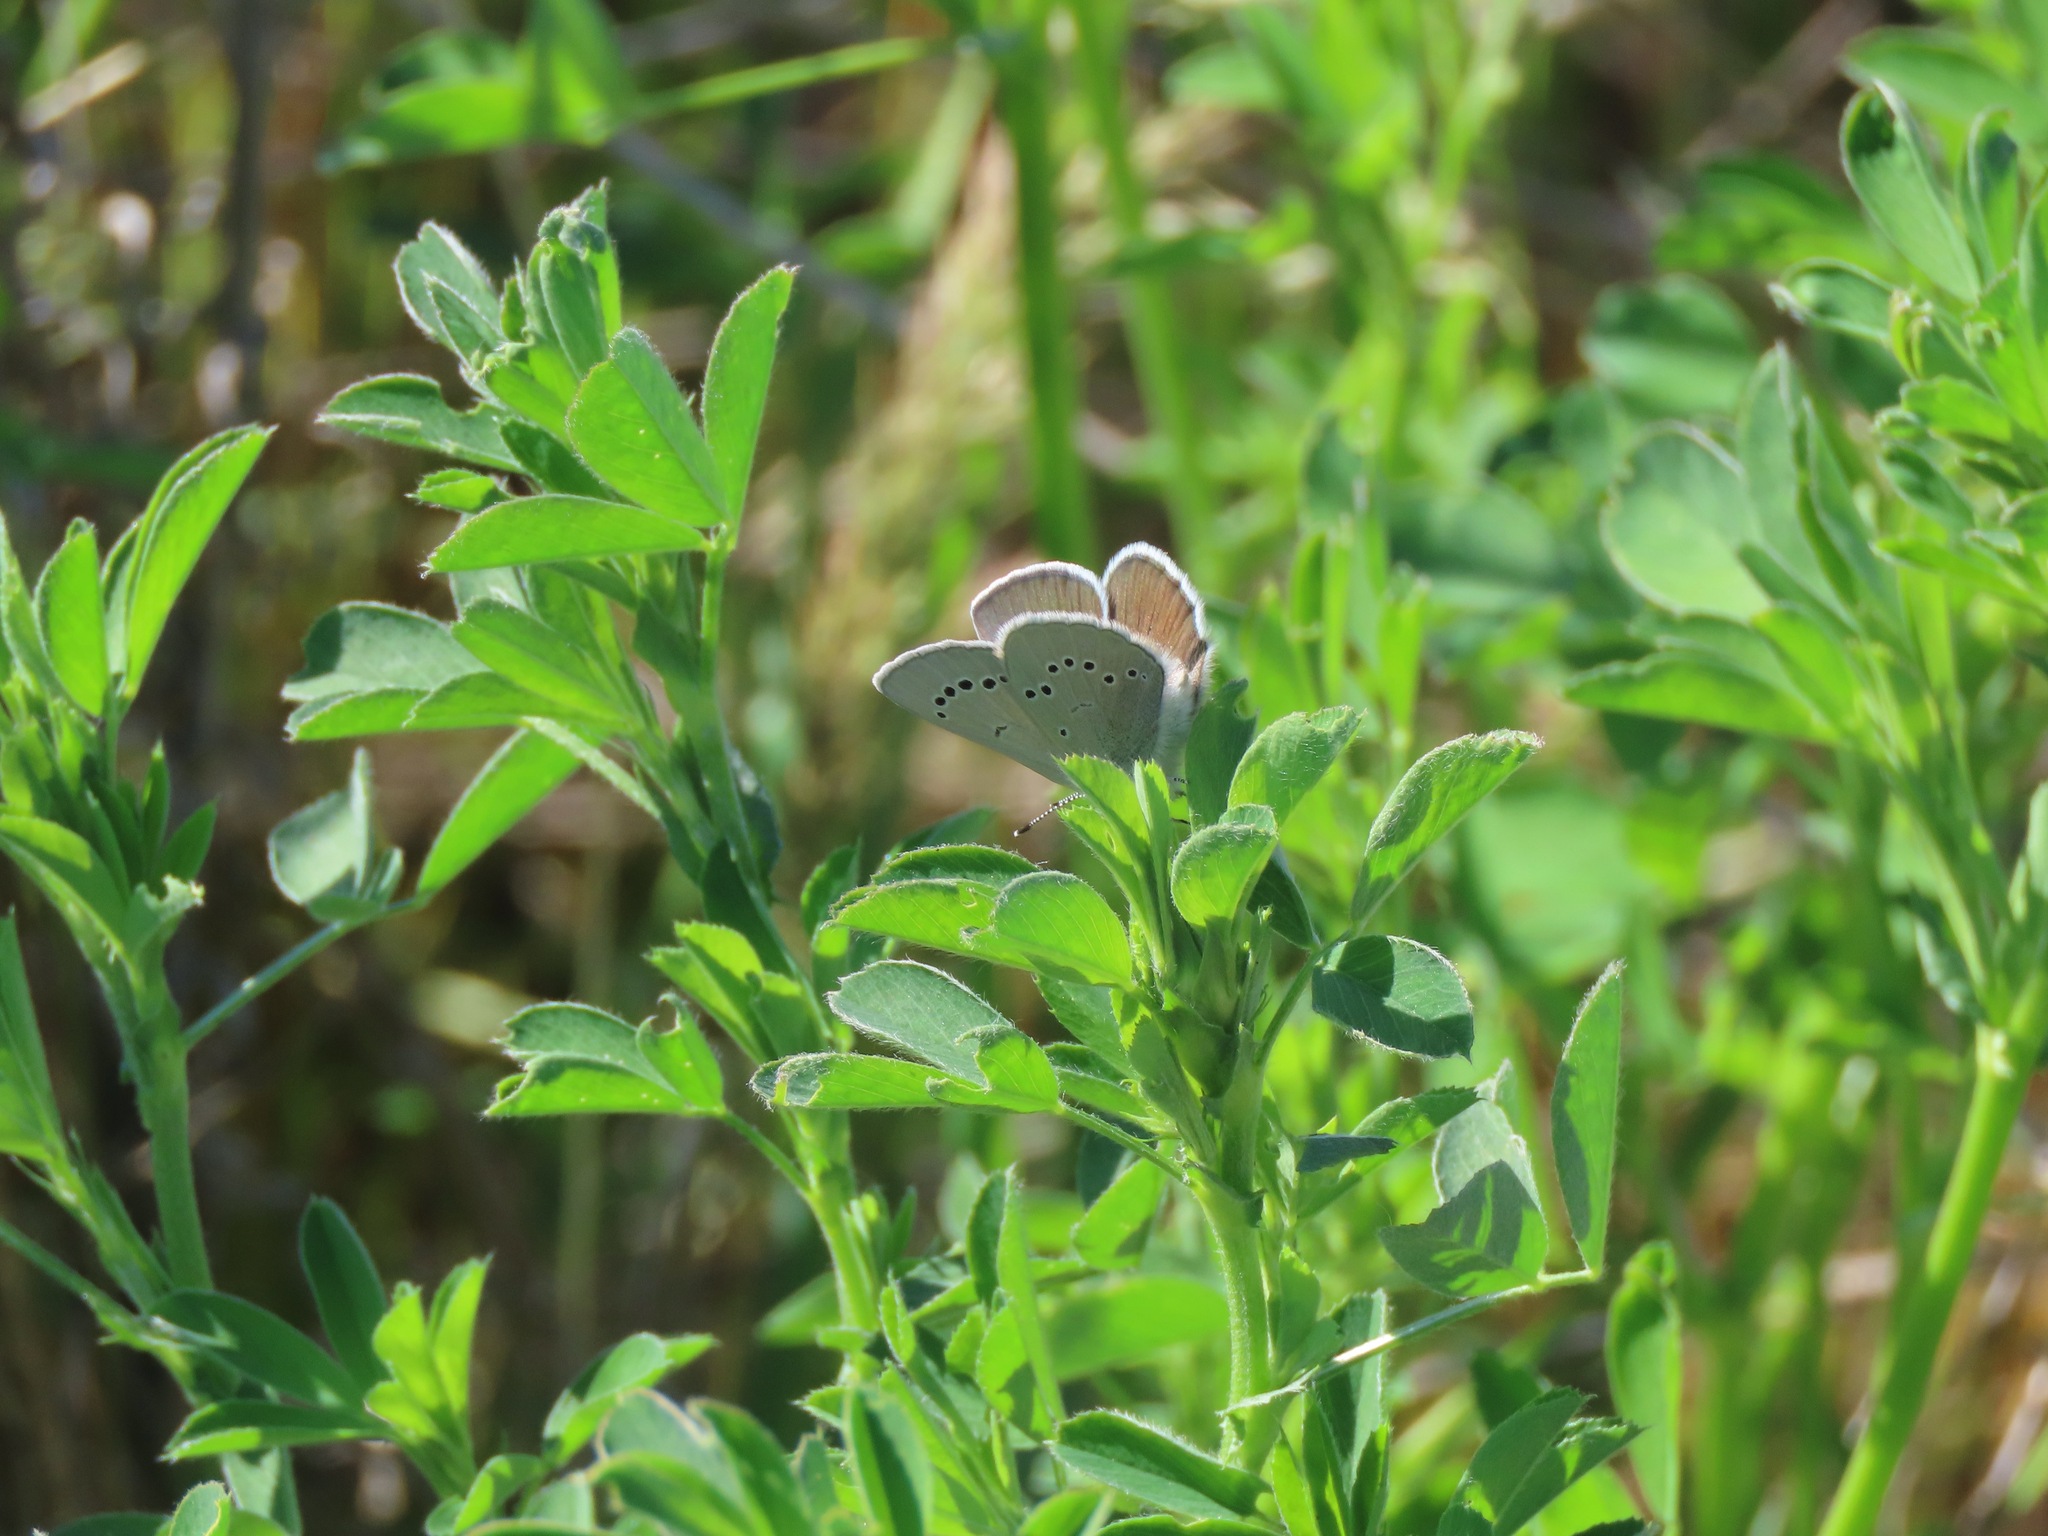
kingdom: Animalia
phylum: Arthropoda
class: Insecta
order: Lepidoptera
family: Lycaenidae
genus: Glaucopsyche
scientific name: Glaucopsyche lygdamus
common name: Silvery blue
